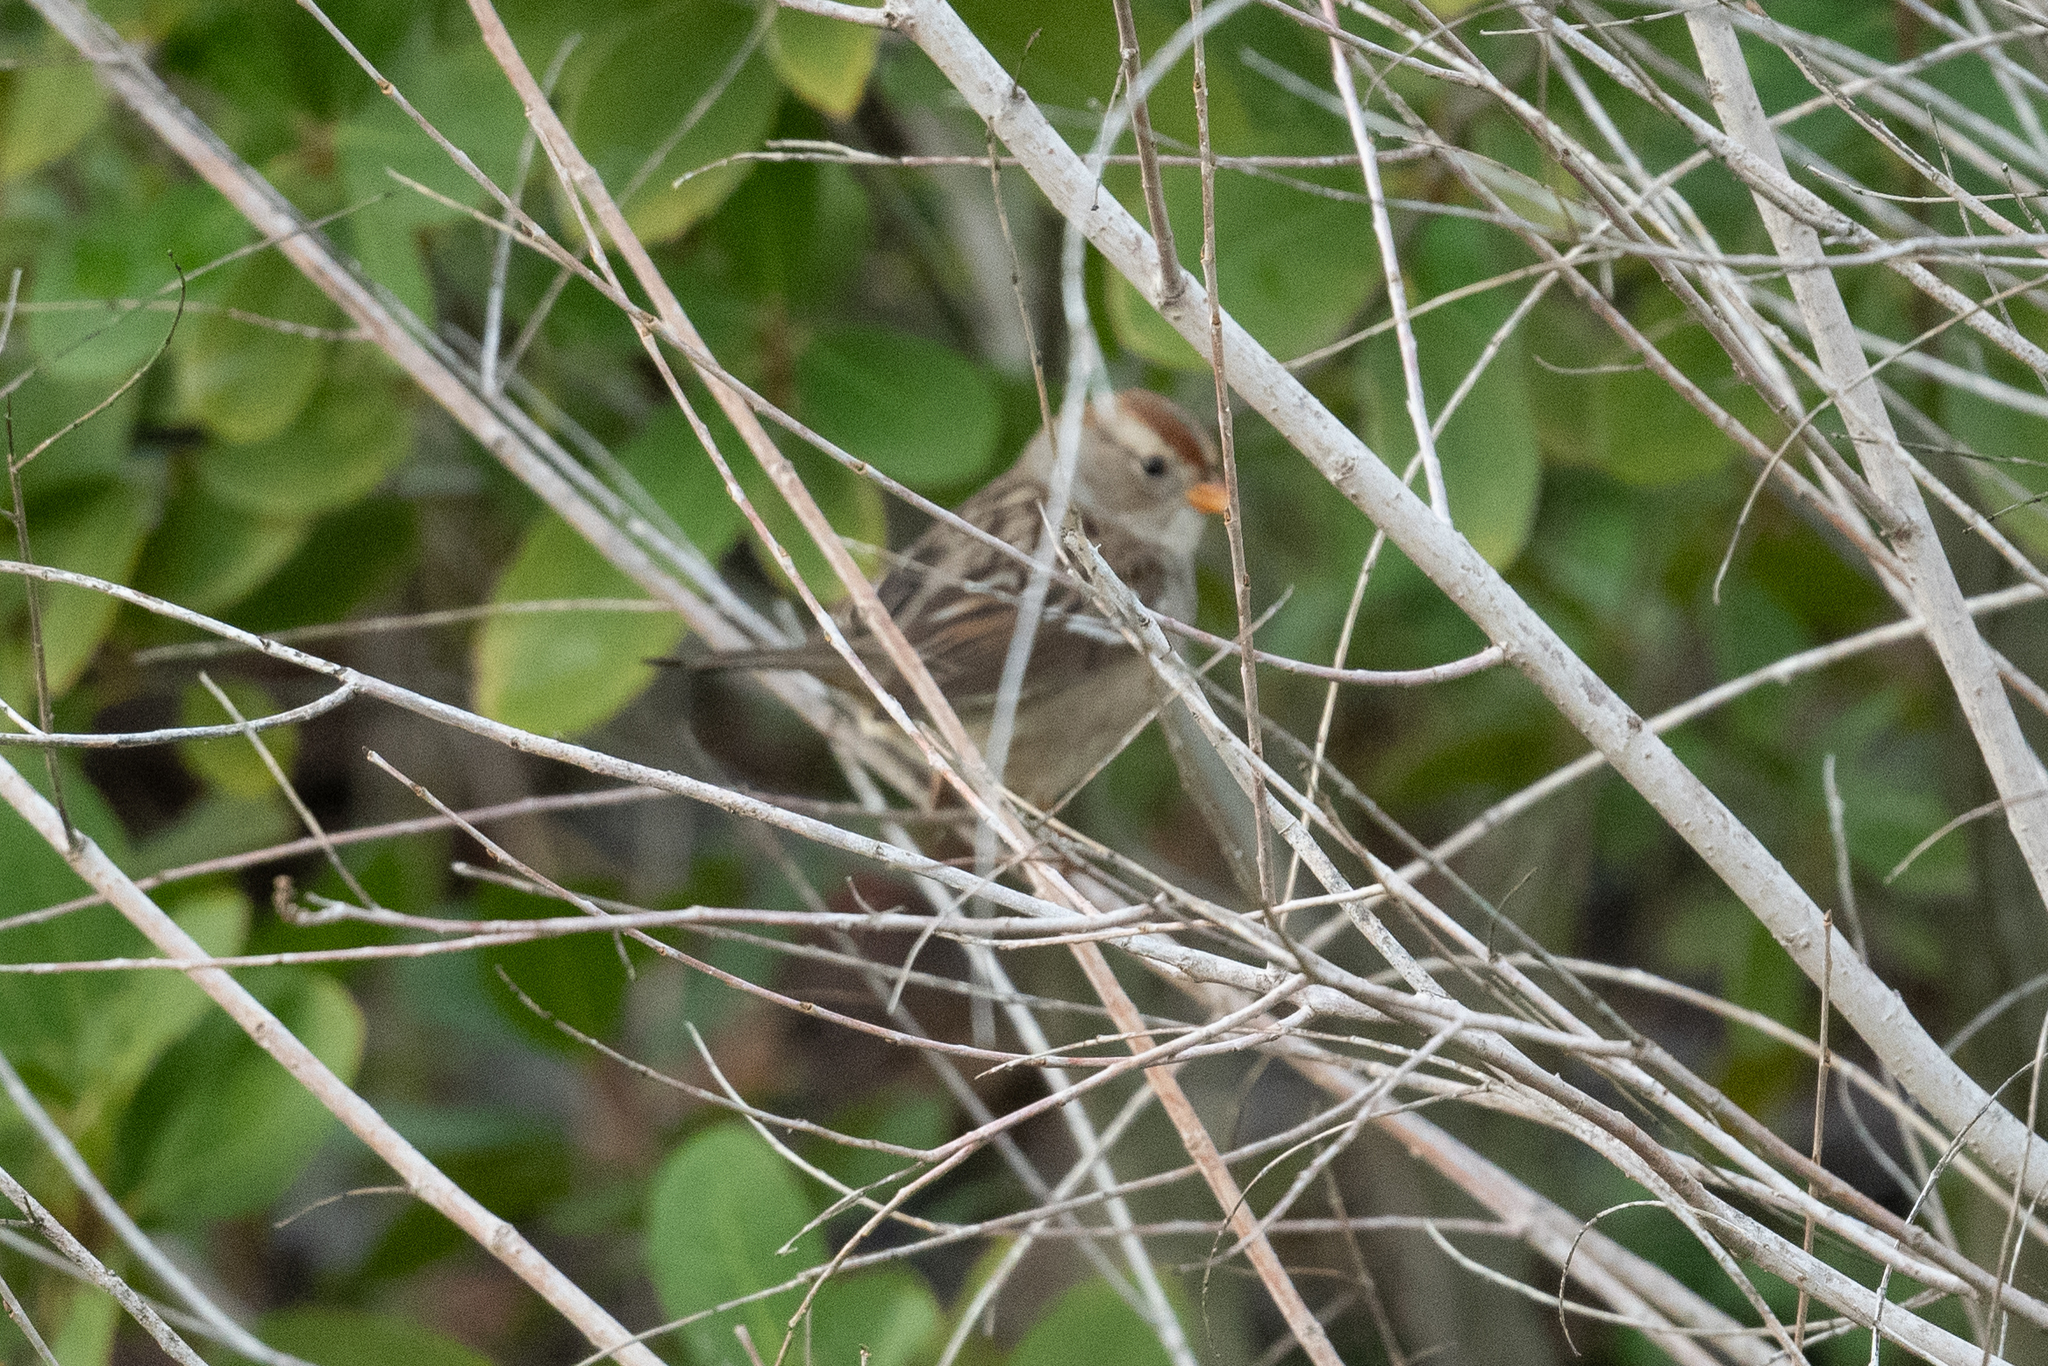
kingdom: Animalia
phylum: Chordata
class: Aves
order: Passeriformes
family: Passerellidae
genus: Zonotrichia
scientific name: Zonotrichia leucophrys
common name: White-crowned sparrow
